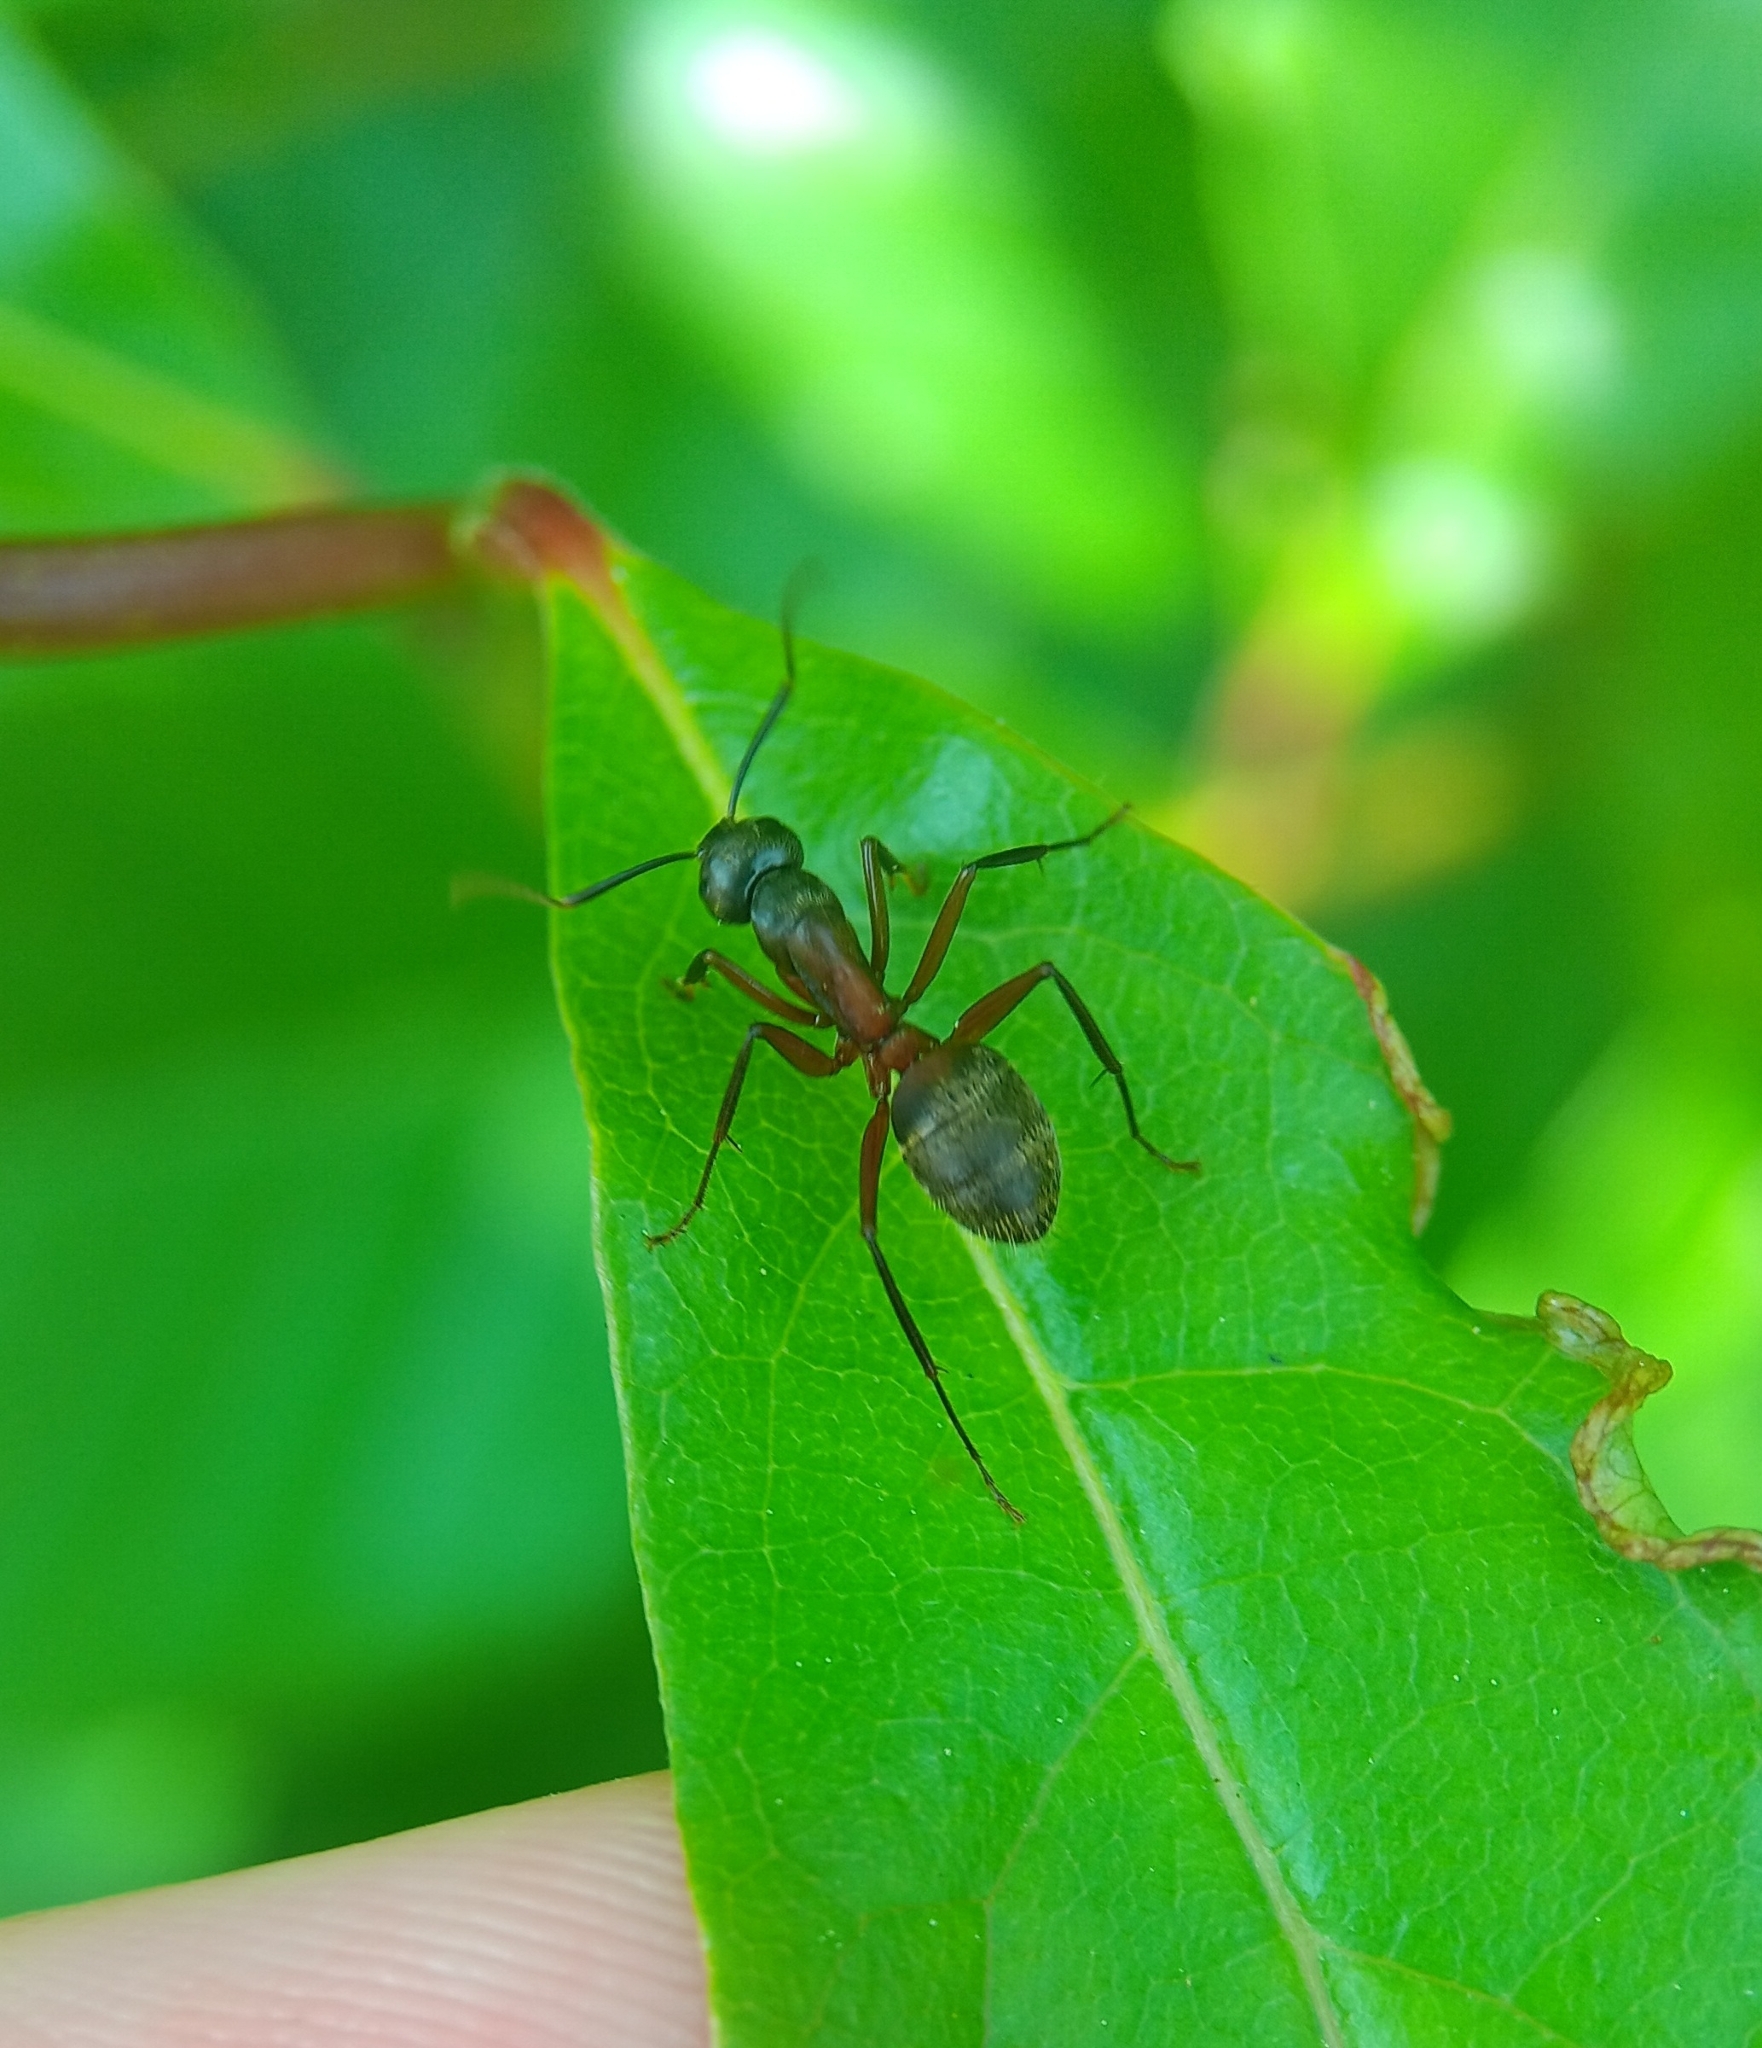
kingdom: Animalia
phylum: Arthropoda
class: Insecta
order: Hymenoptera
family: Formicidae
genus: Camponotus
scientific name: Camponotus chromaiodes
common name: Red carpenter ant
